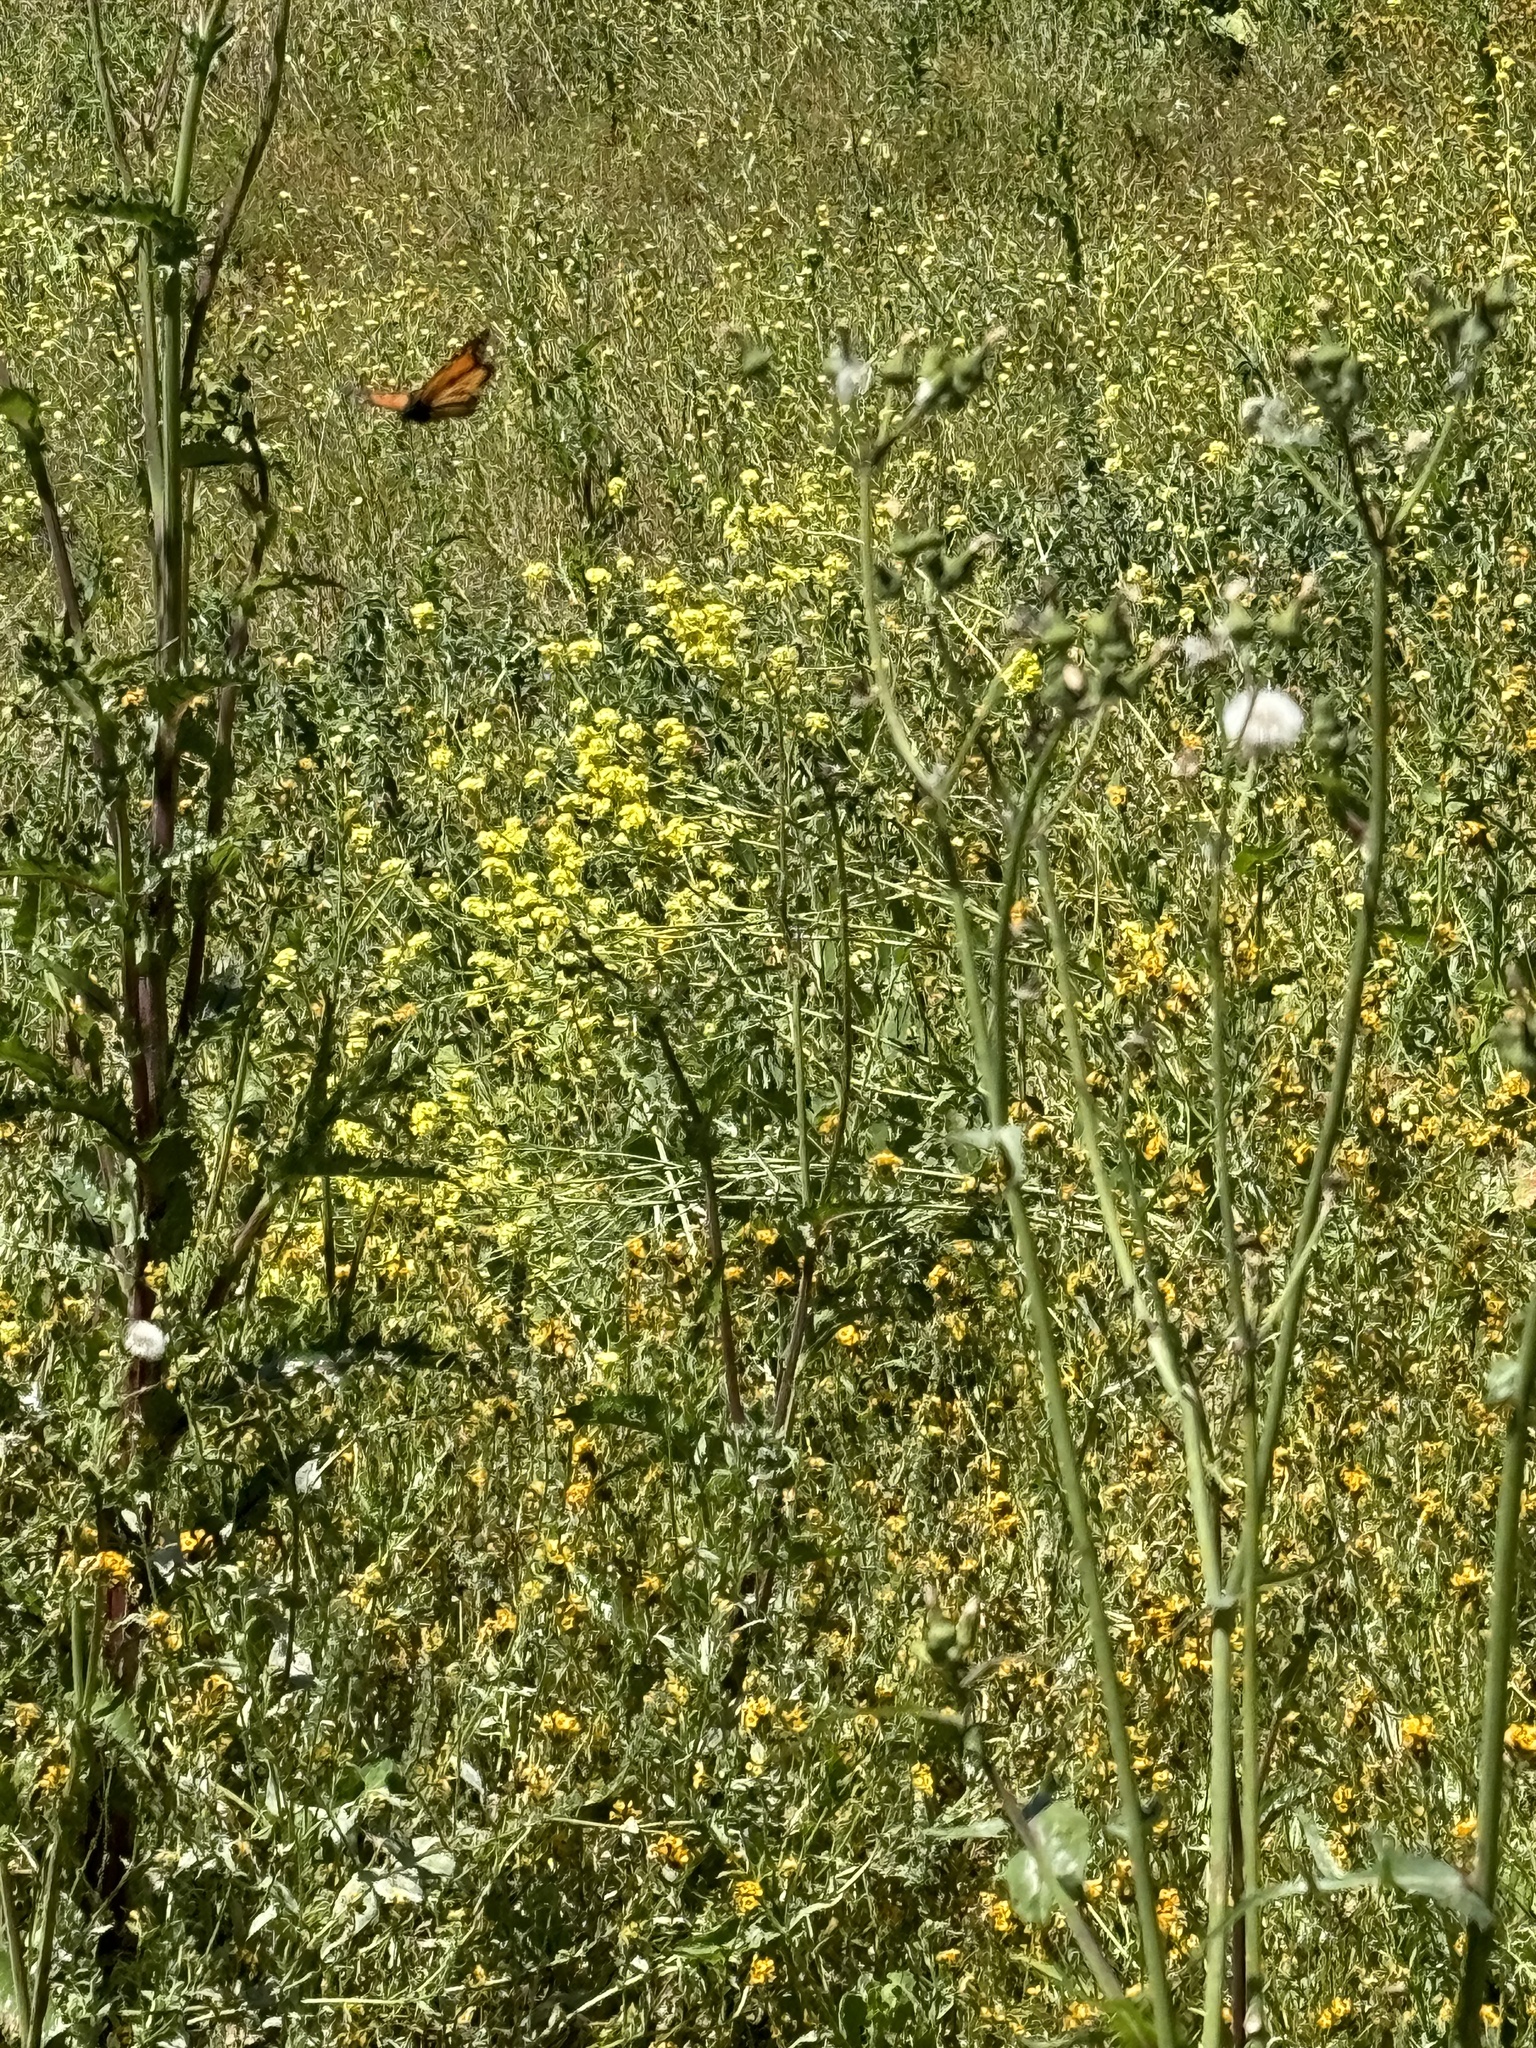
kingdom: Animalia
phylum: Arthropoda
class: Insecta
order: Lepidoptera
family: Nymphalidae
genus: Danaus
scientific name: Danaus plexippus
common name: Monarch
